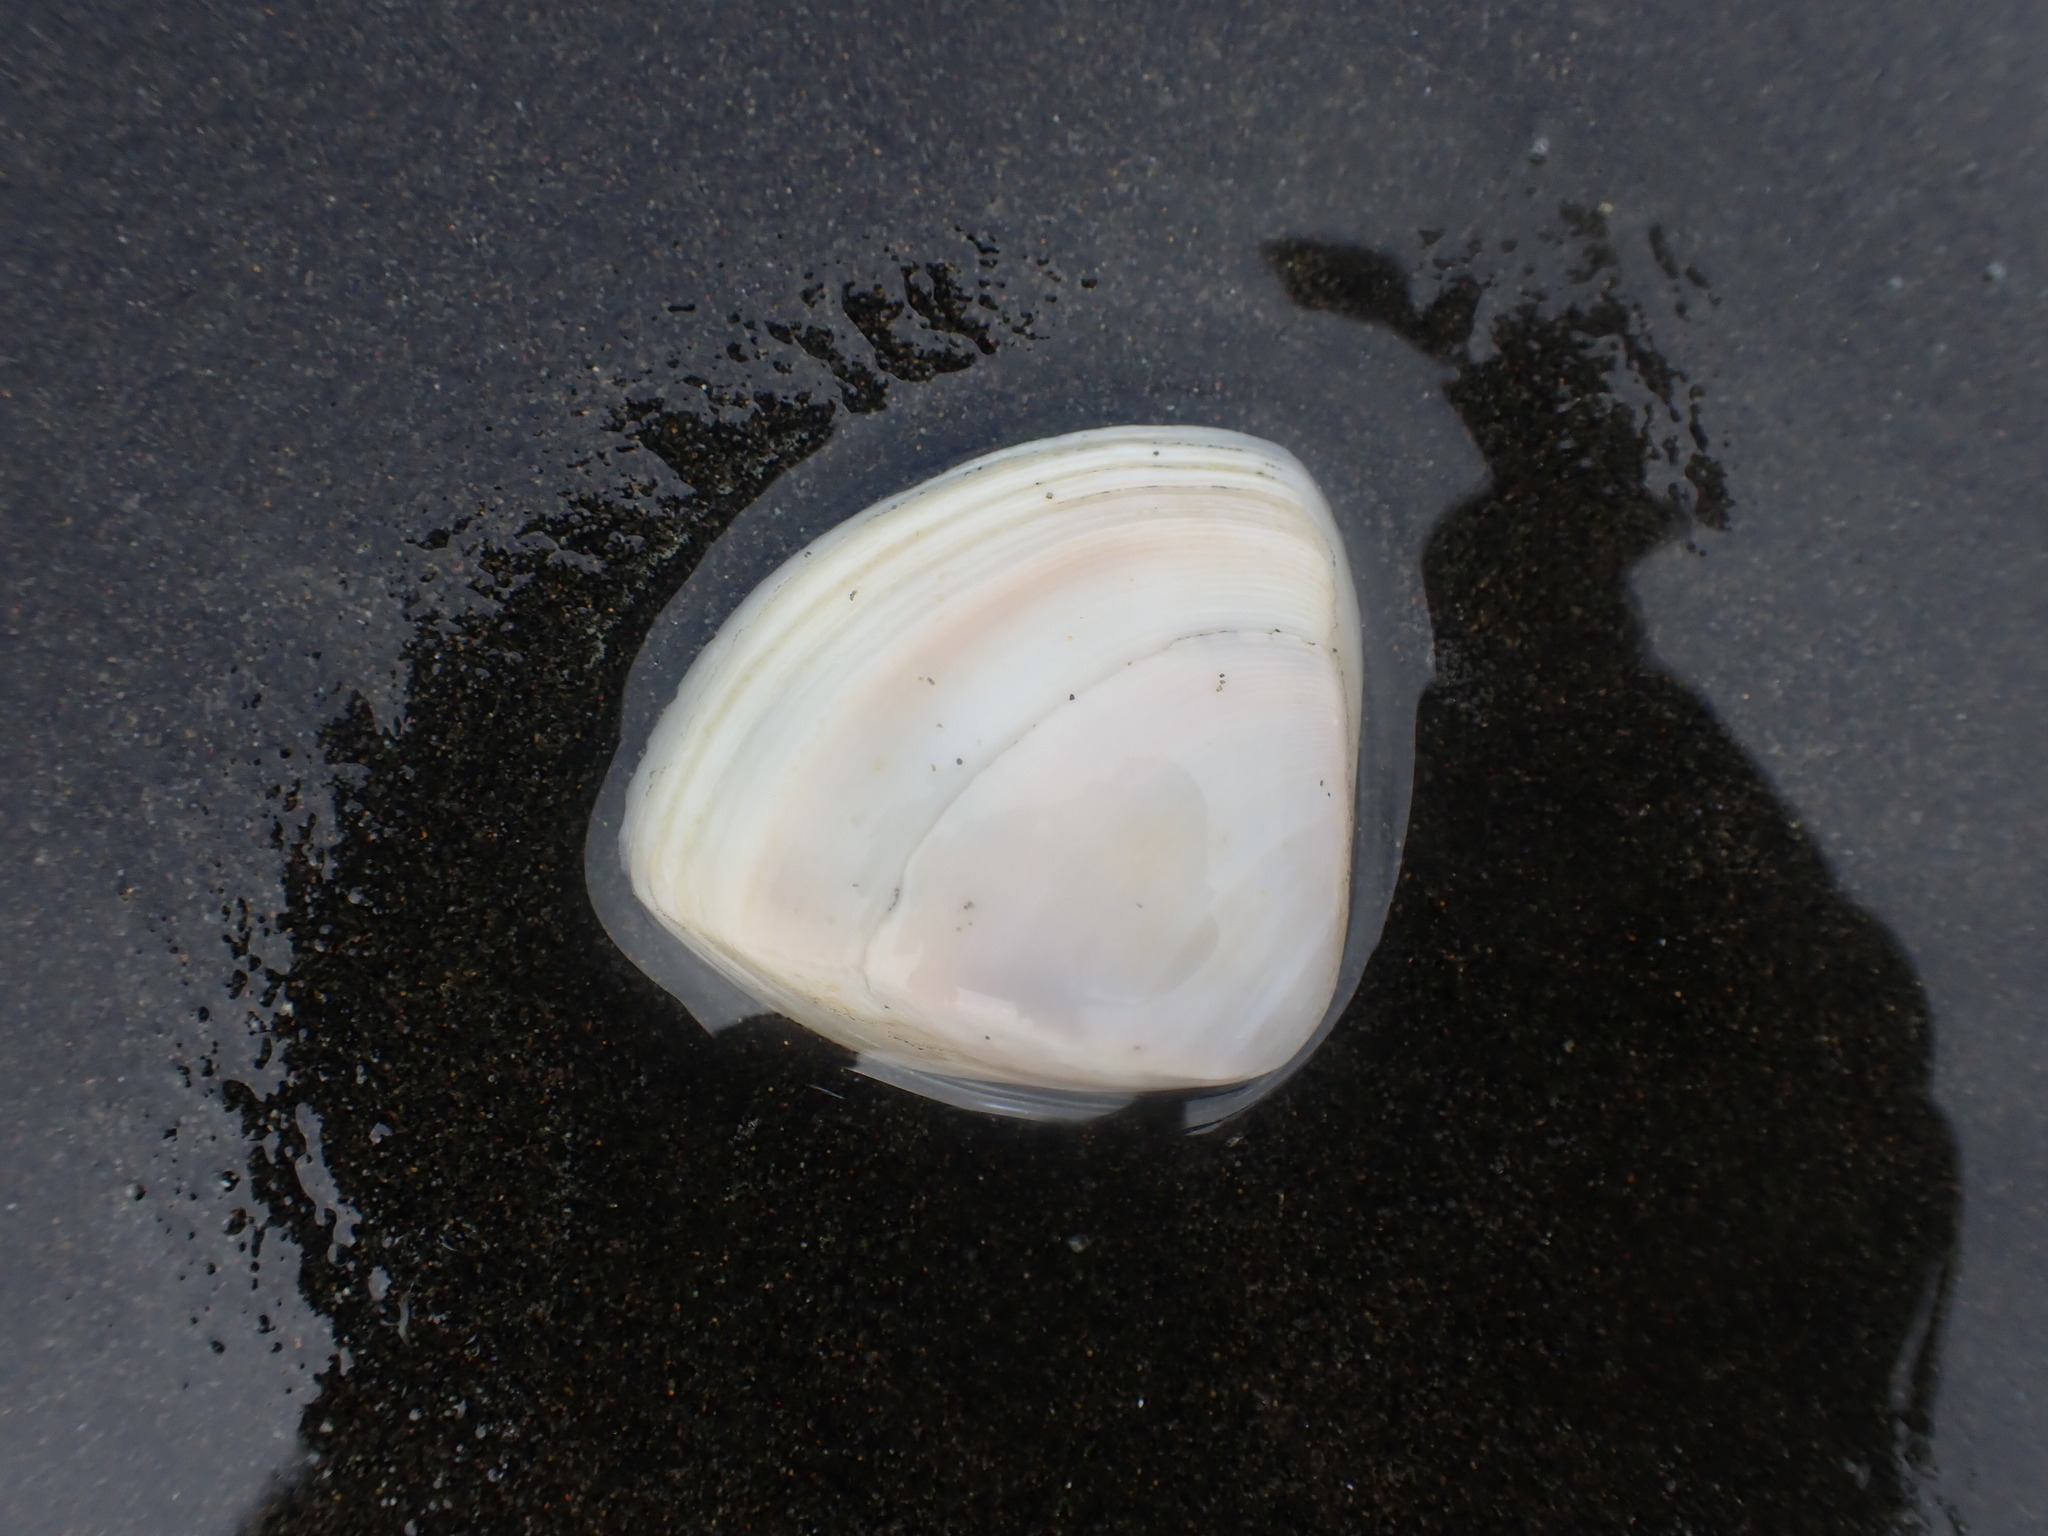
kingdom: Animalia
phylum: Mollusca
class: Bivalvia
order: Venerida
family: Mactridae
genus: Crassula
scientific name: Crassula aequilatera
